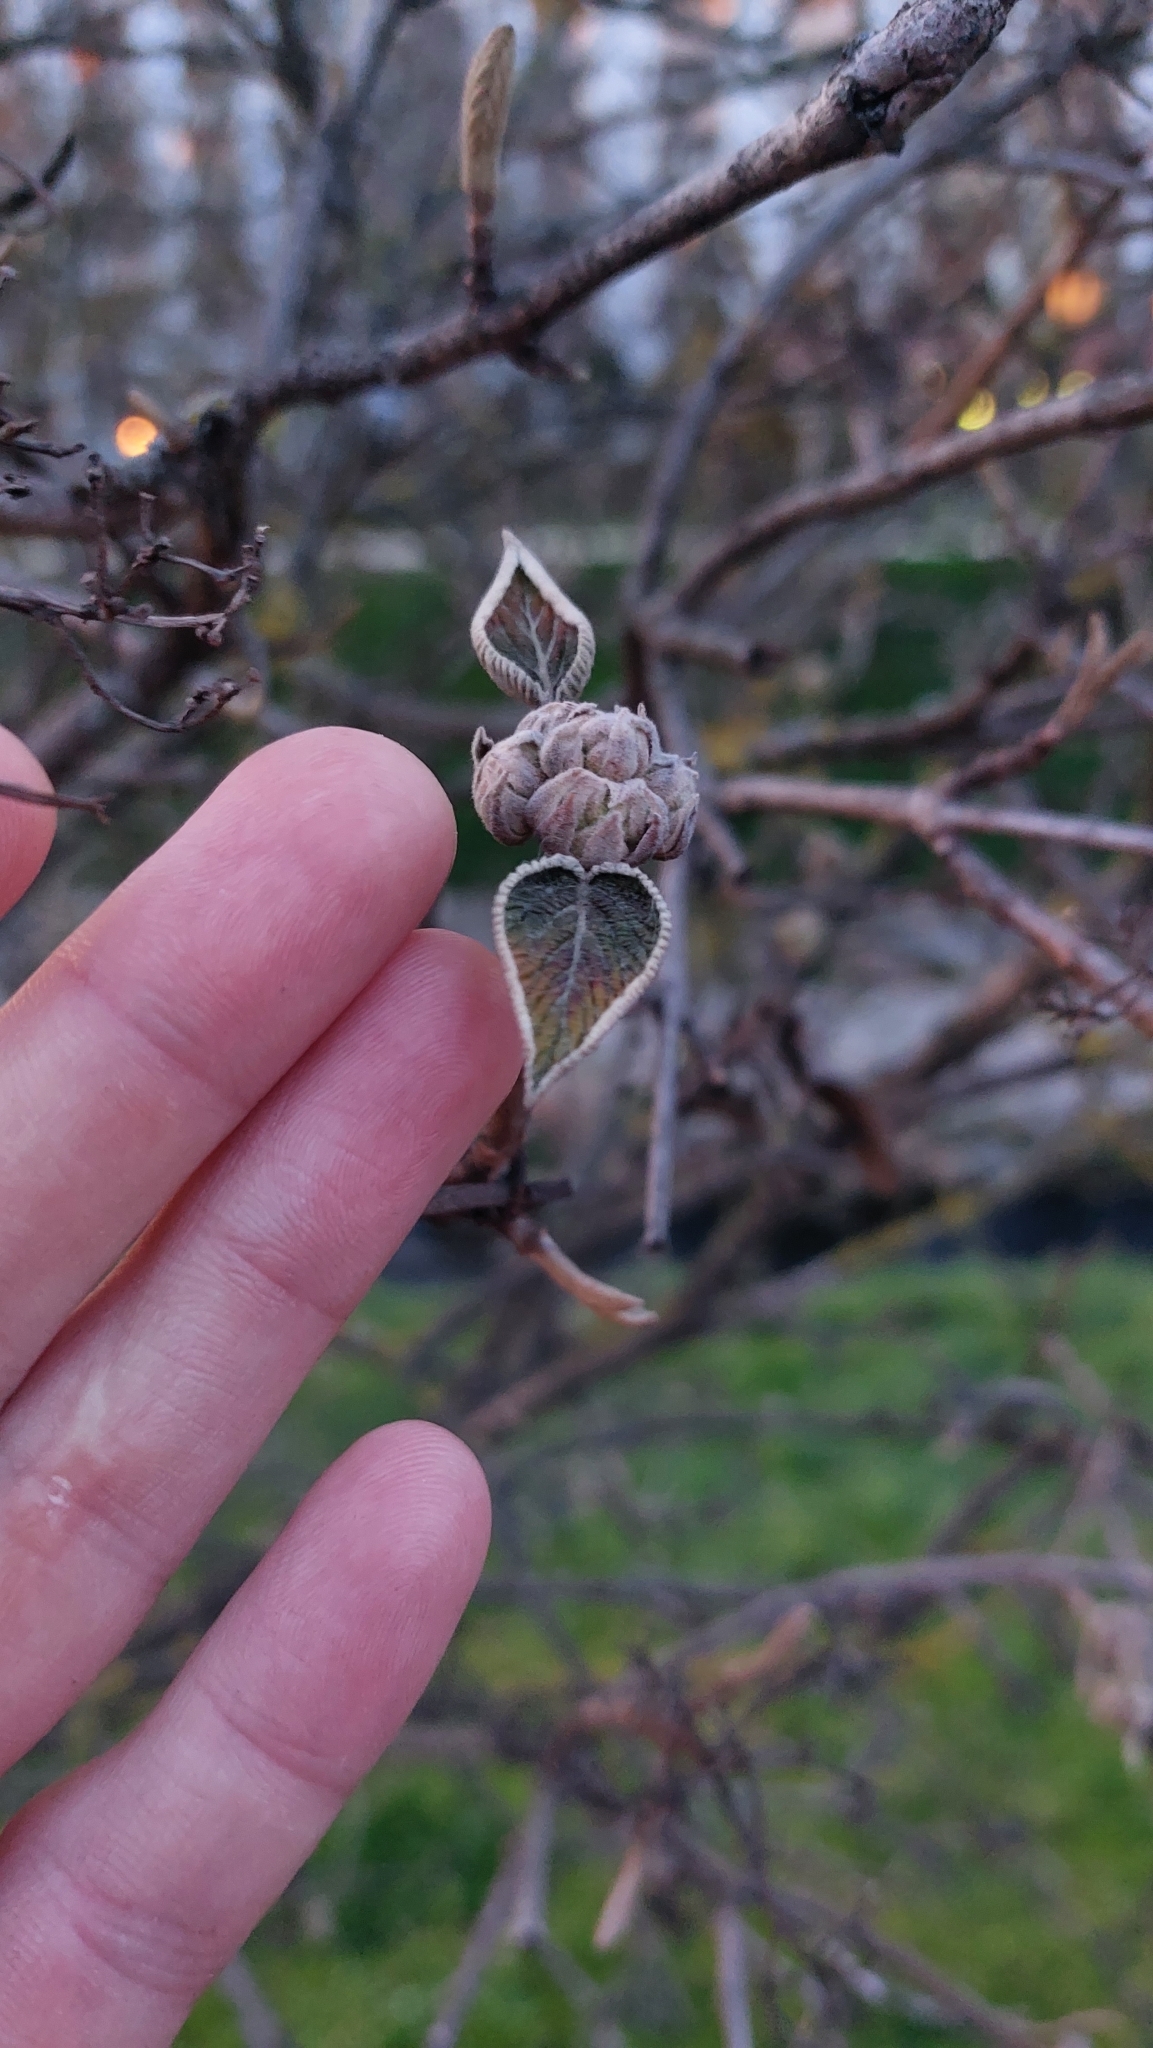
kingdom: Plantae
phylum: Tracheophyta
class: Magnoliopsida
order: Dipsacales
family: Viburnaceae
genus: Viburnum
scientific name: Viburnum lantana
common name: Wayfaring tree
